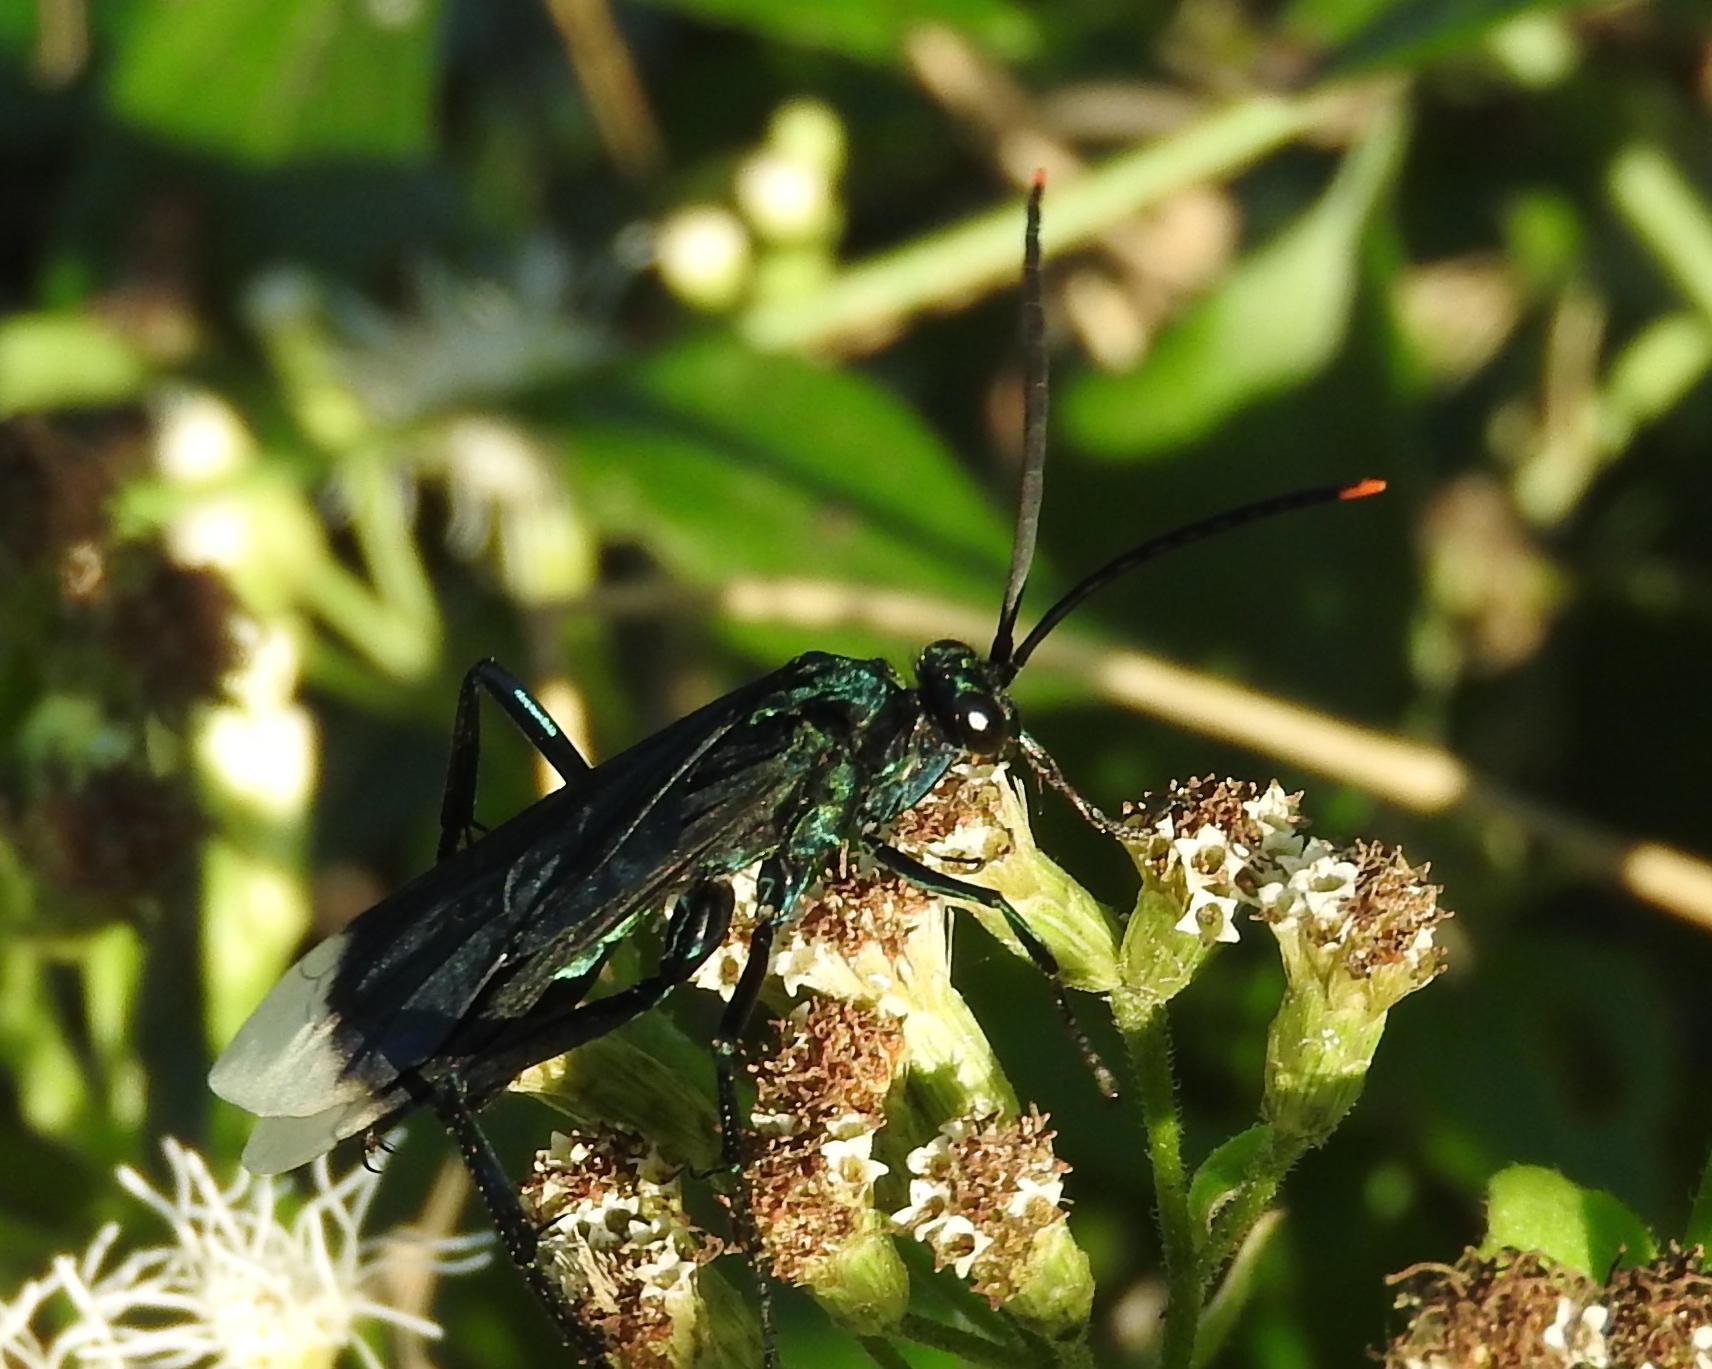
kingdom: Animalia
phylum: Arthropoda
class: Insecta
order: Hymenoptera
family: Pompilidae
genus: Pepsis
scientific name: Pepsis
